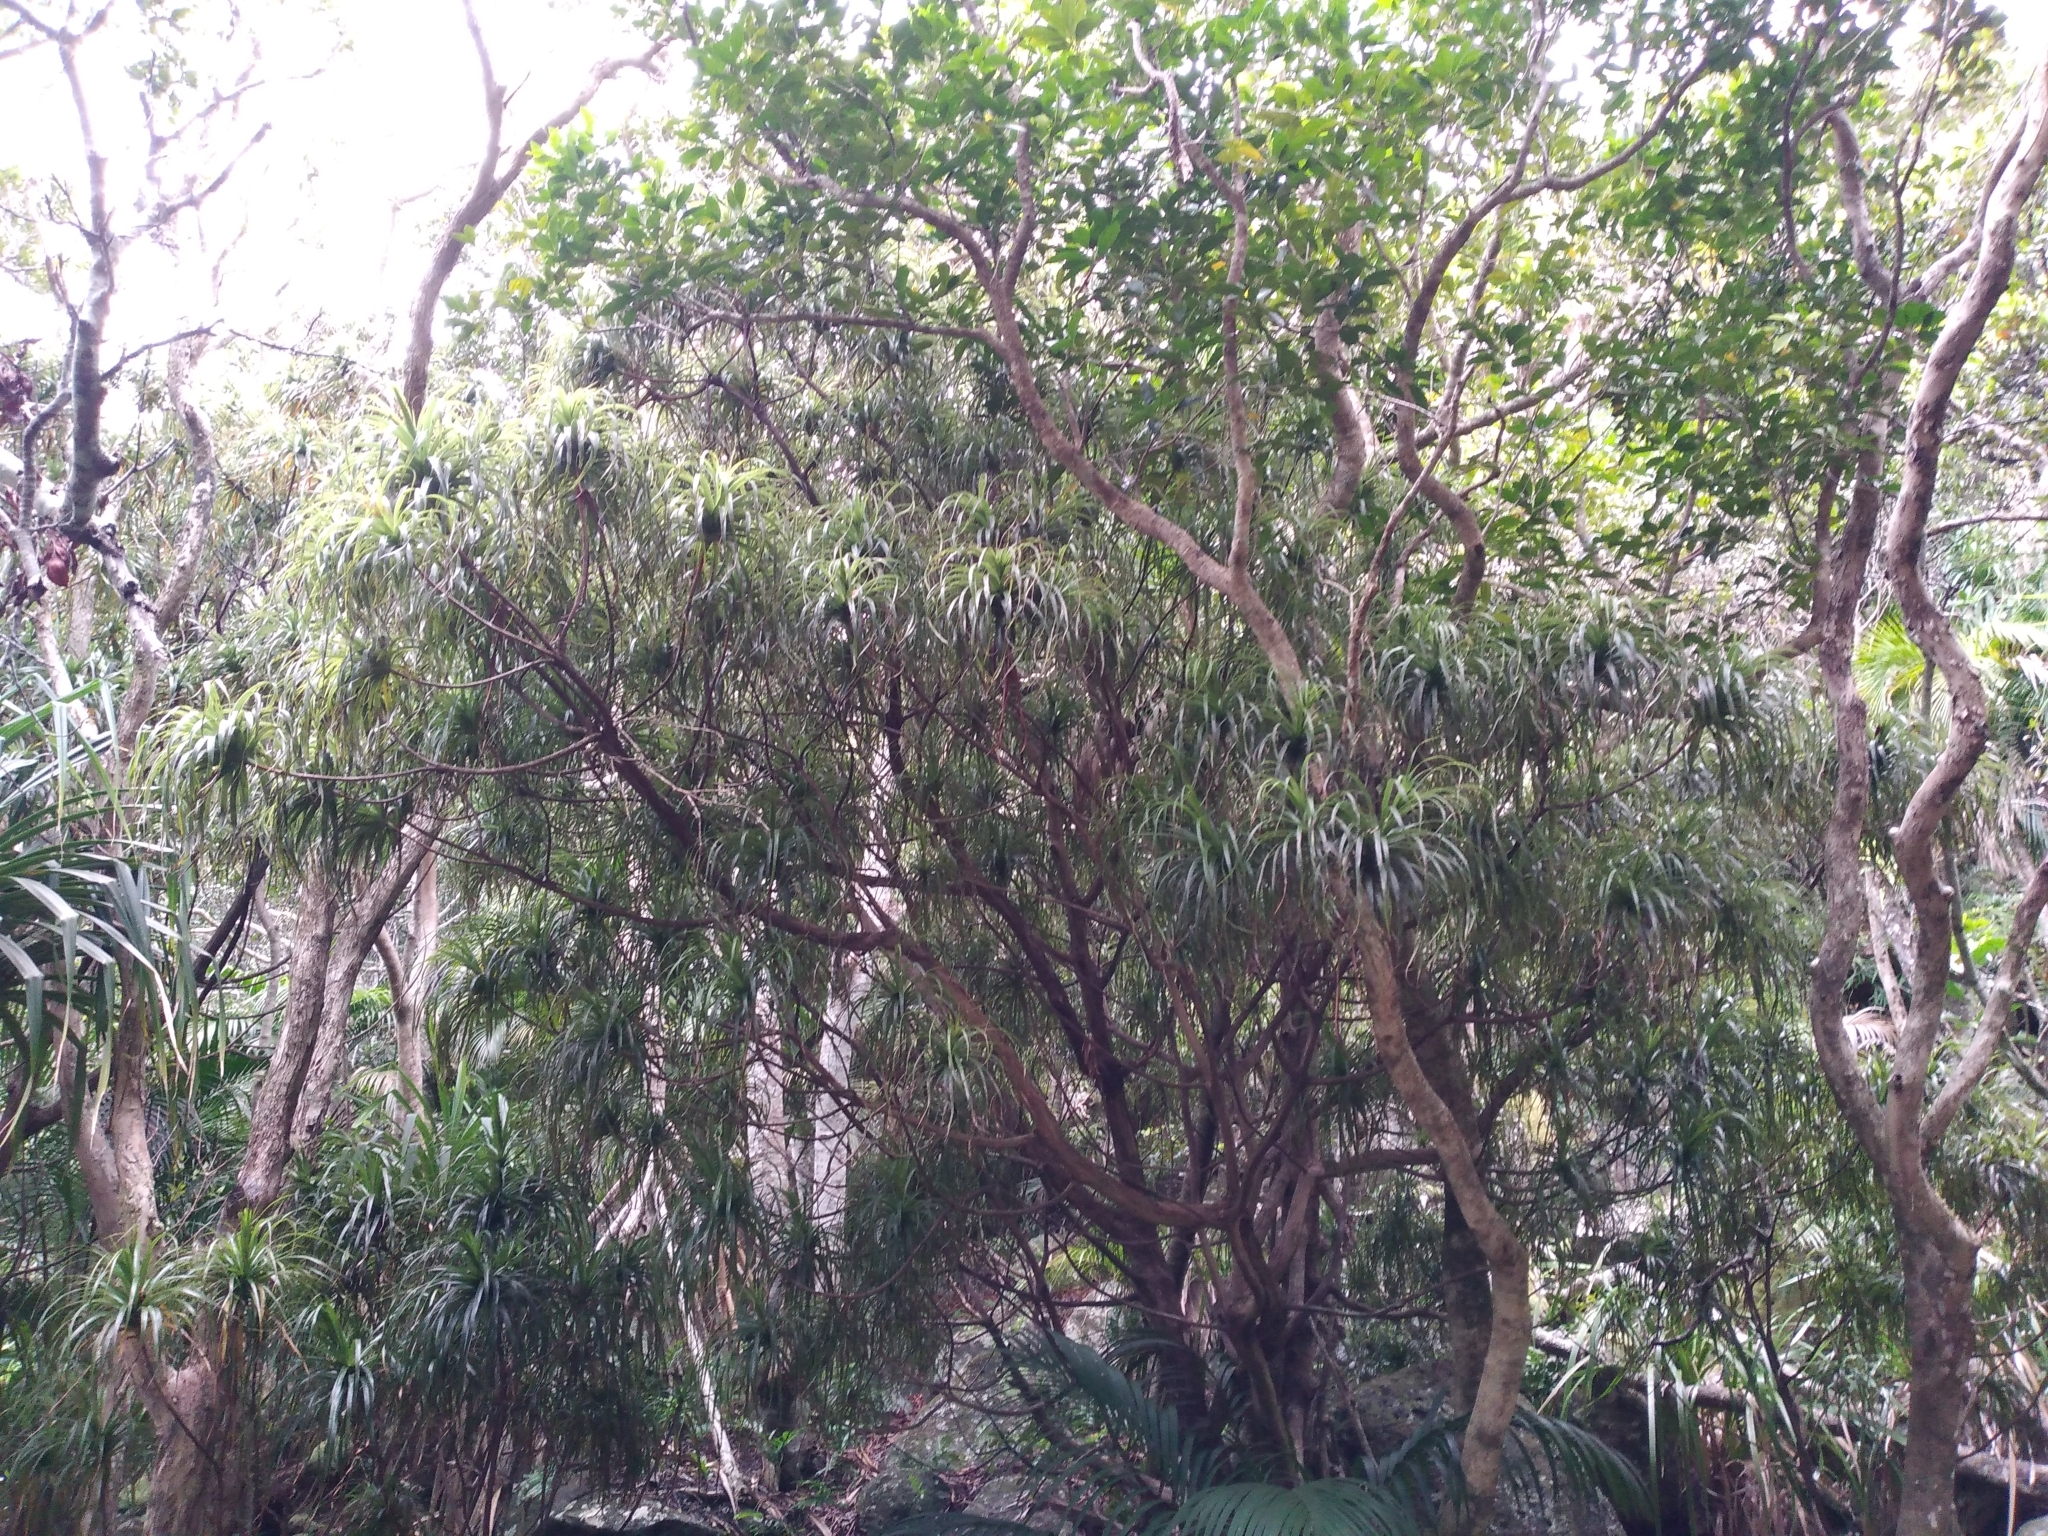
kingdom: Plantae
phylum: Tracheophyta
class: Magnoliopsida
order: Ericales
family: Ericaceae
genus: Dracophyllum
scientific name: Dracophyllum fitzgeraldii
